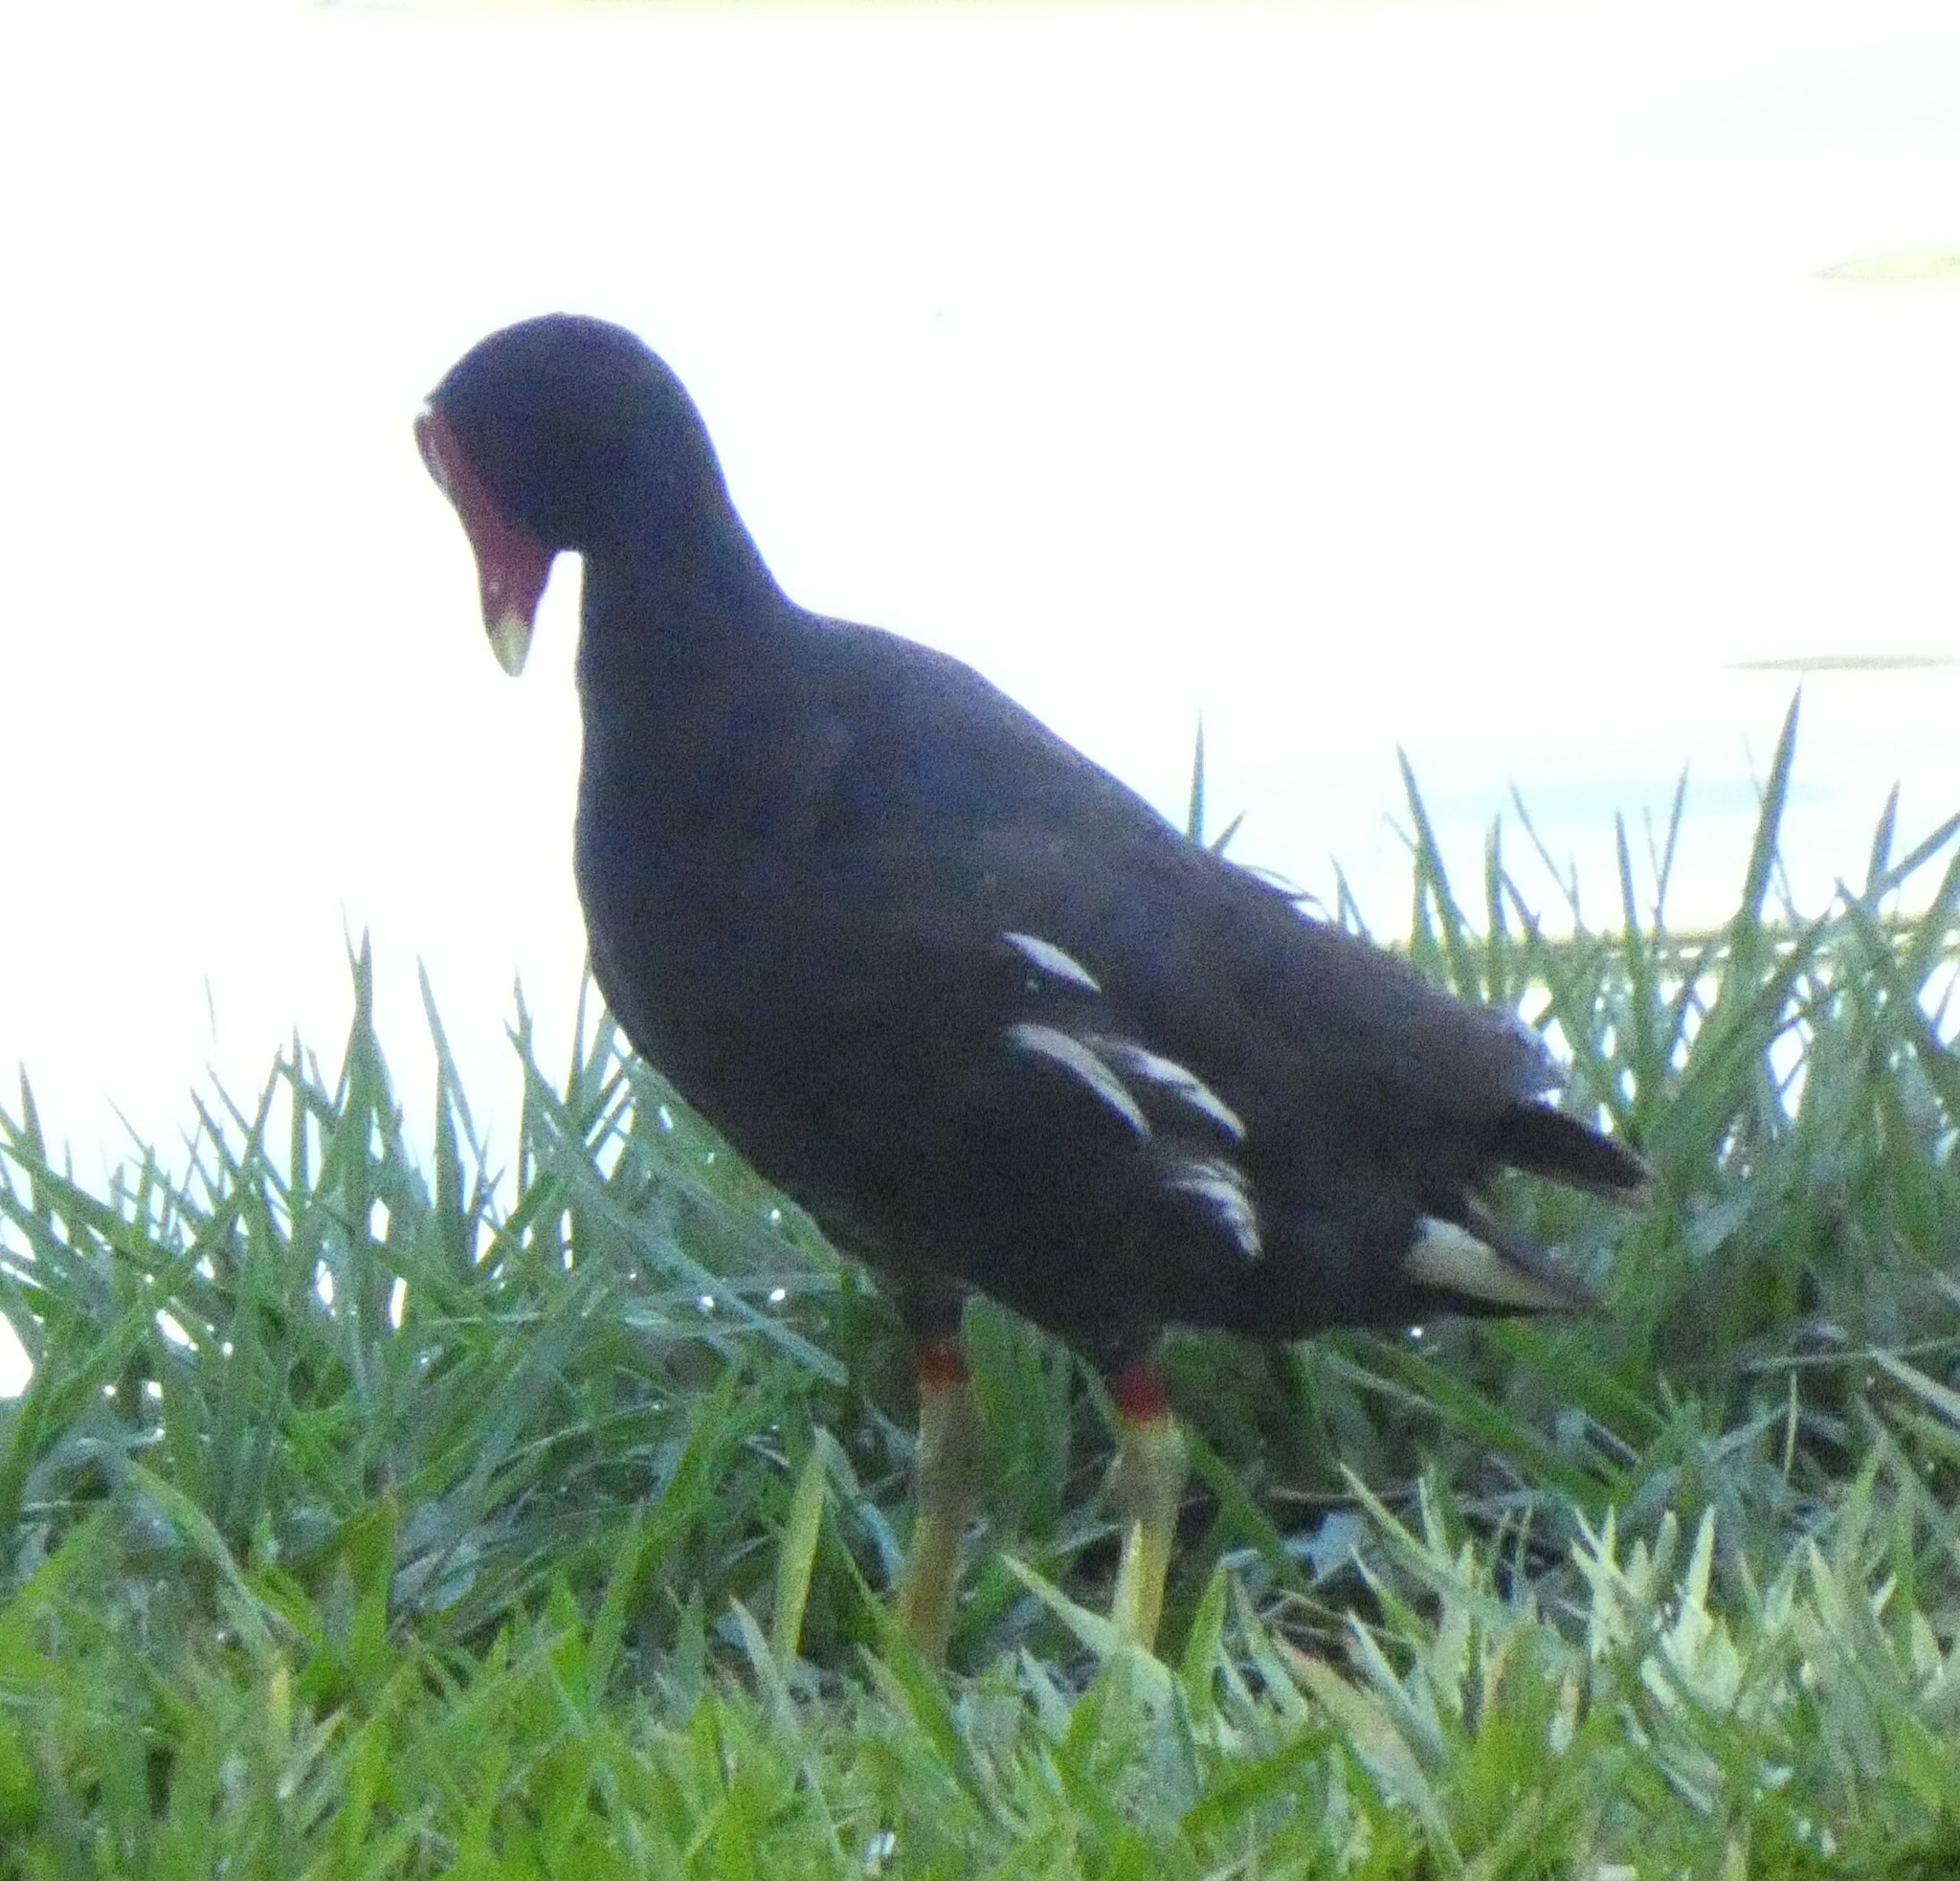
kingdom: Animalia
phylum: Chordata
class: Aves
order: Gruiformes
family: Rallidae
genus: Gallinula
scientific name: Gallinula chloropus
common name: Common moorhen
